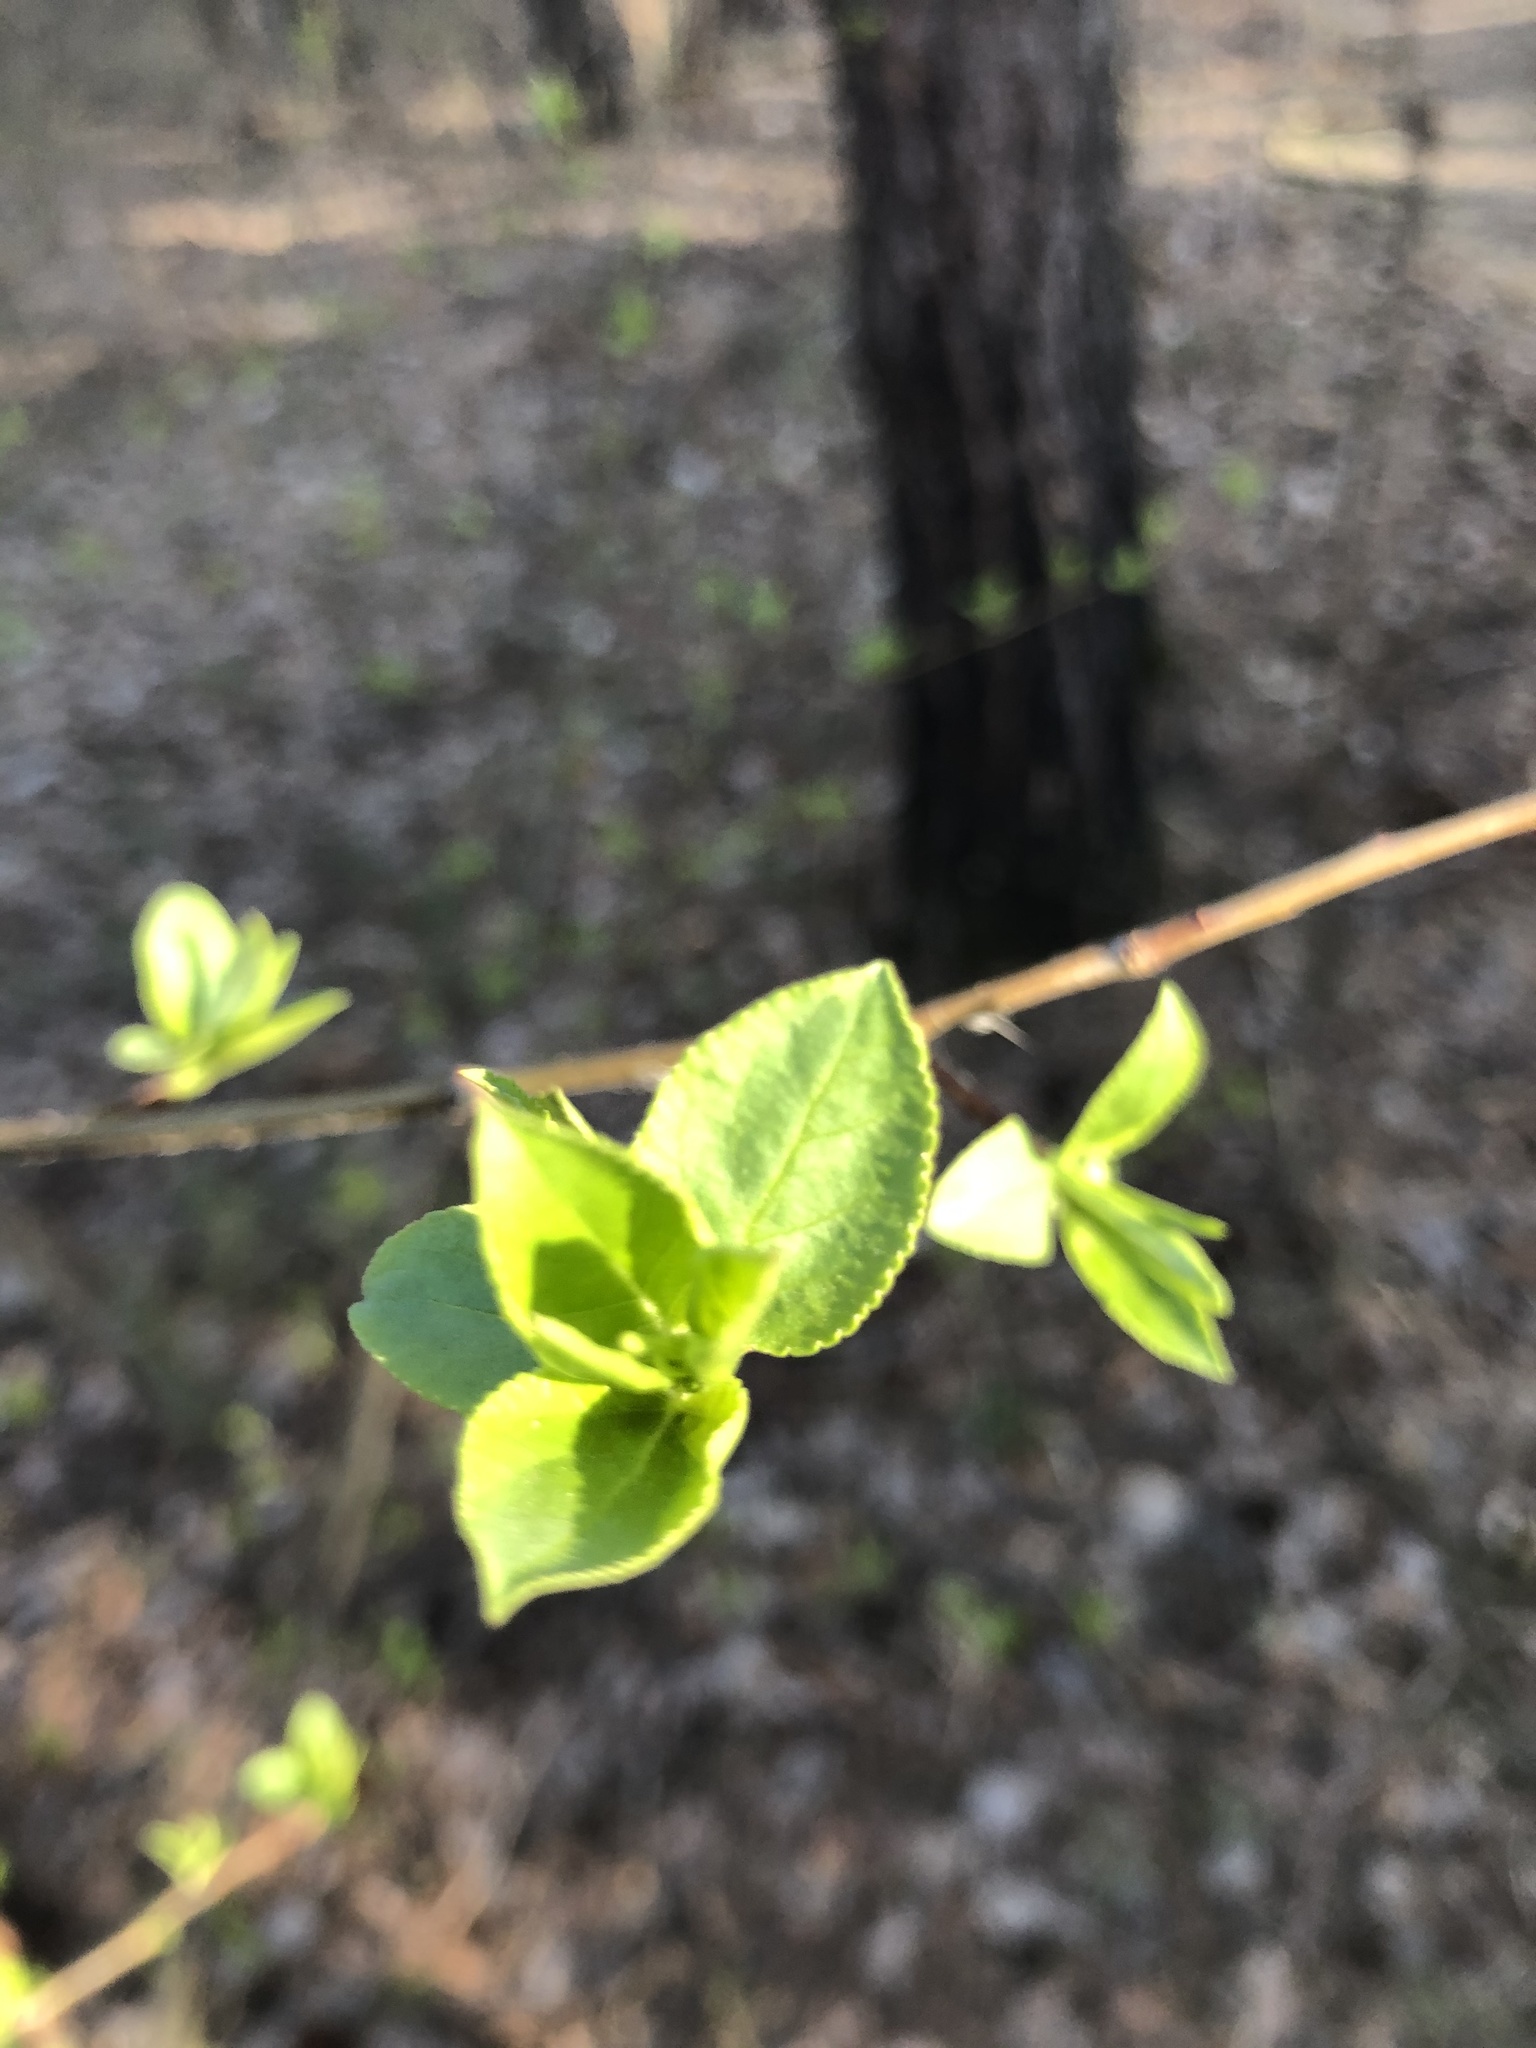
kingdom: Plantae
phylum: Tracheophyta
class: Magnoliopsida
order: Rosales
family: Rosaceae
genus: Malus
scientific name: Malus baccata
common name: Siberian crab
